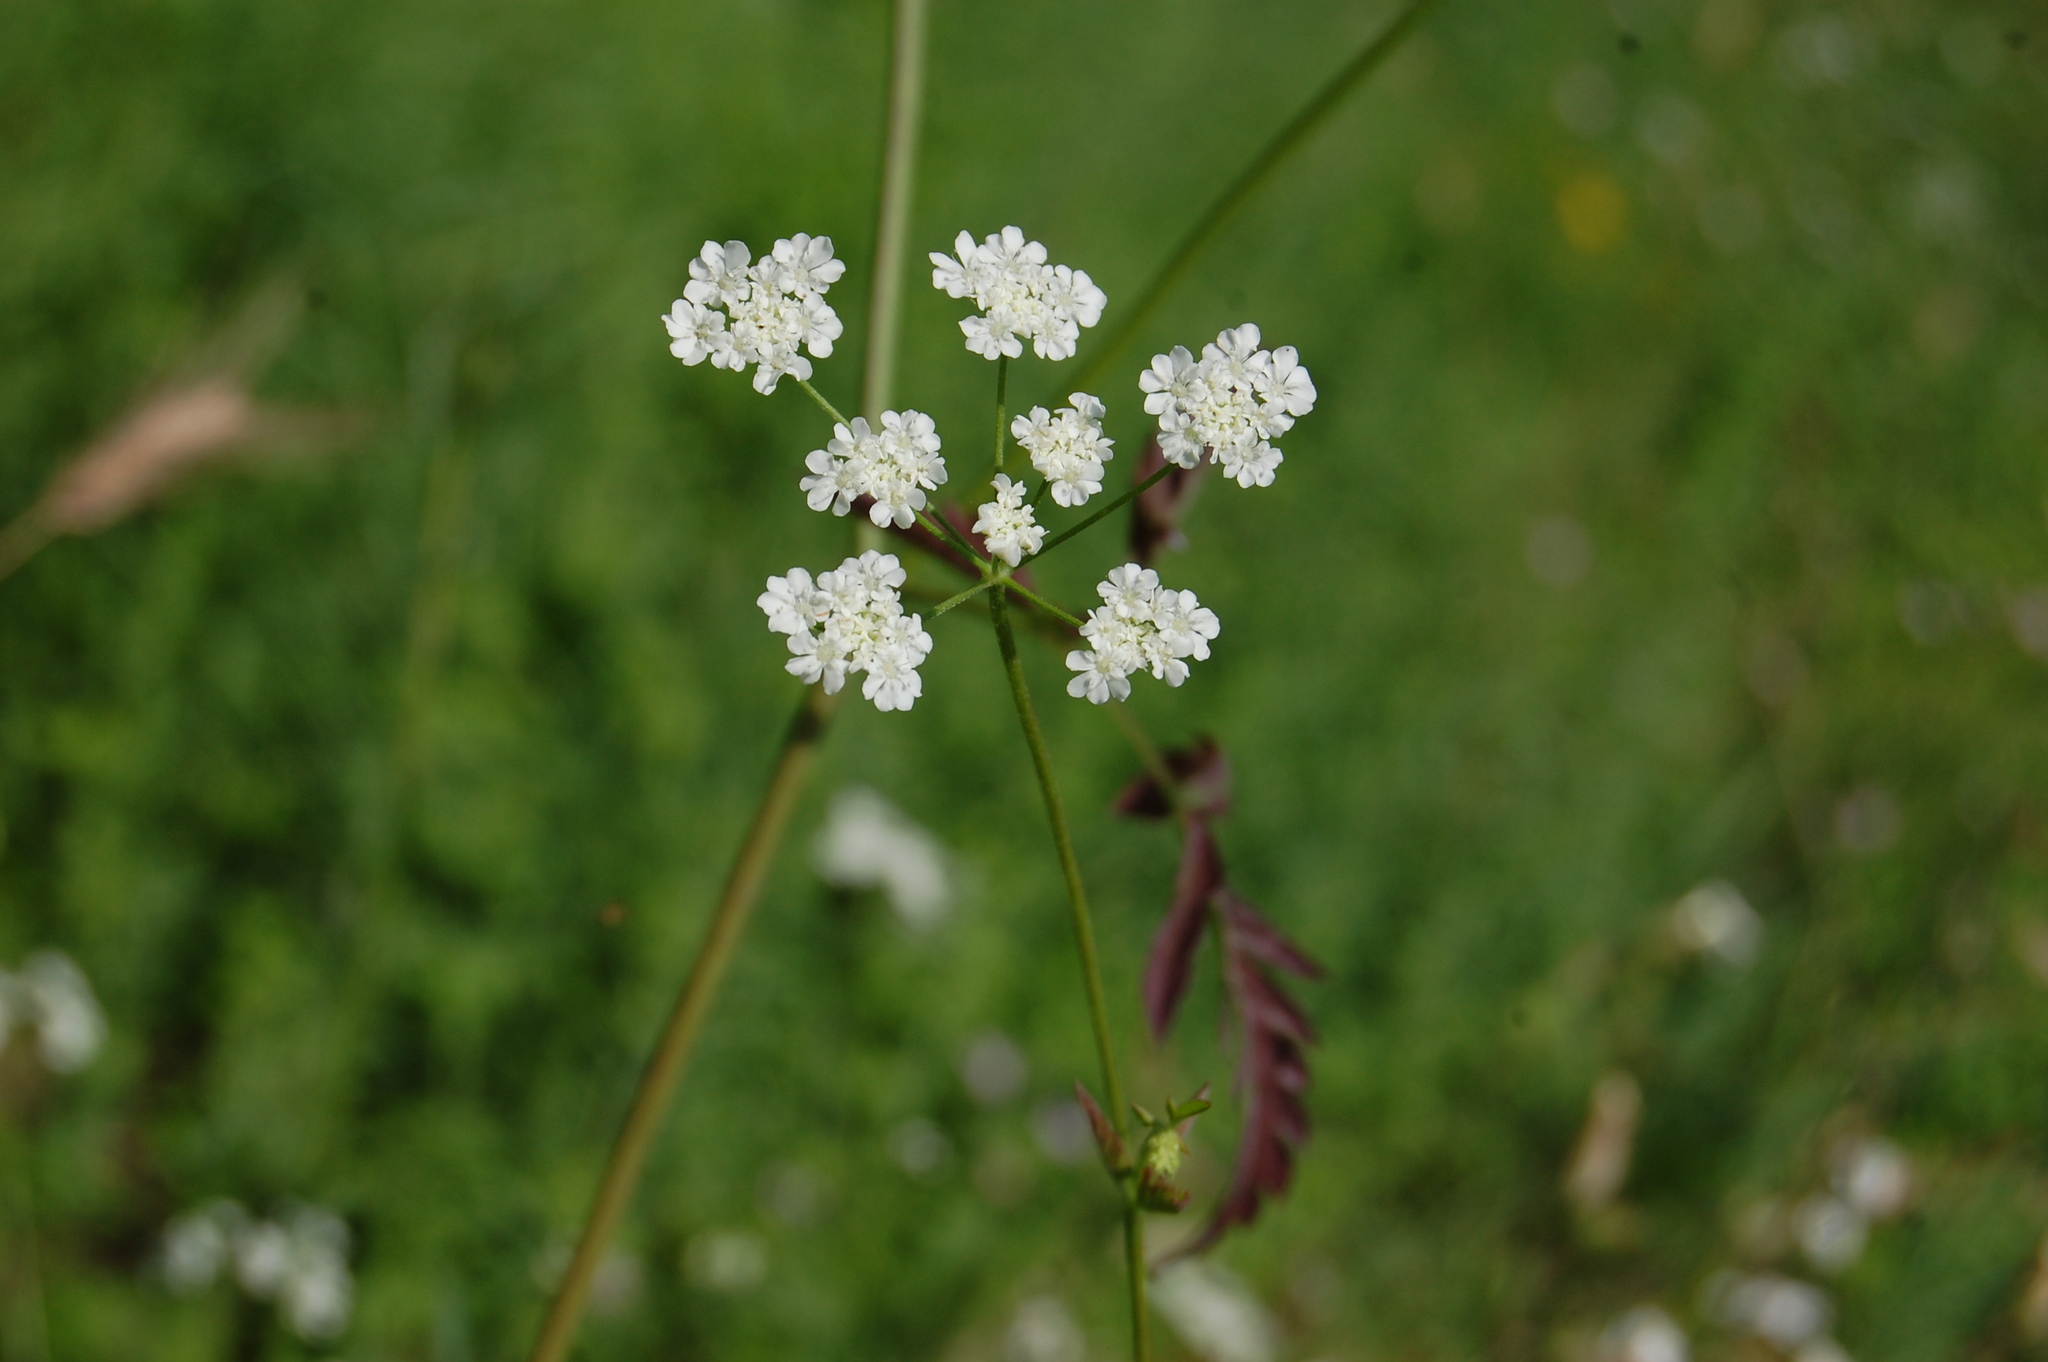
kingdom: Plantae
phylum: Tracheophyta
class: Magnoliopsida
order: Apiales
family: Apiaceae
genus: Torilis
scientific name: Torilis arvensis
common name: Spreading hedge-parsley
